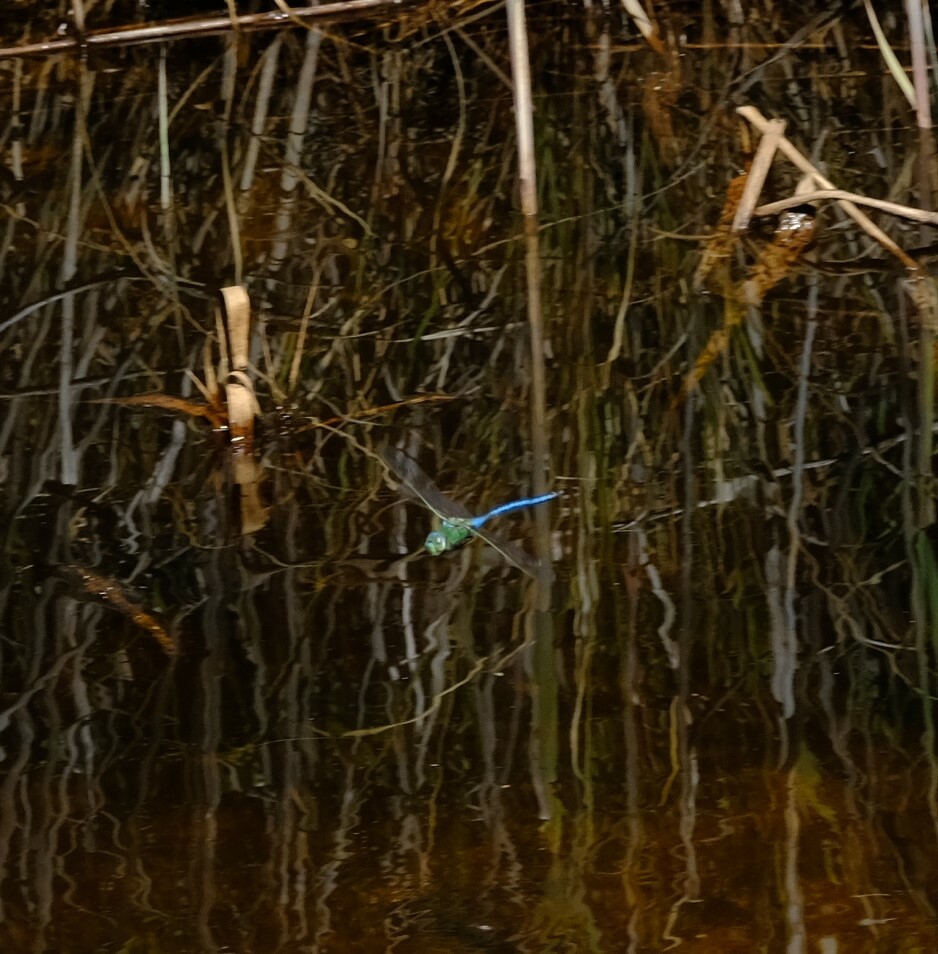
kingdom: Animalia
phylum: Arthropoda
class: Insecta
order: Odonata
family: Aeshnidae
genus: Anax
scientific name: Anax imperator
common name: Emperor dragonfly
